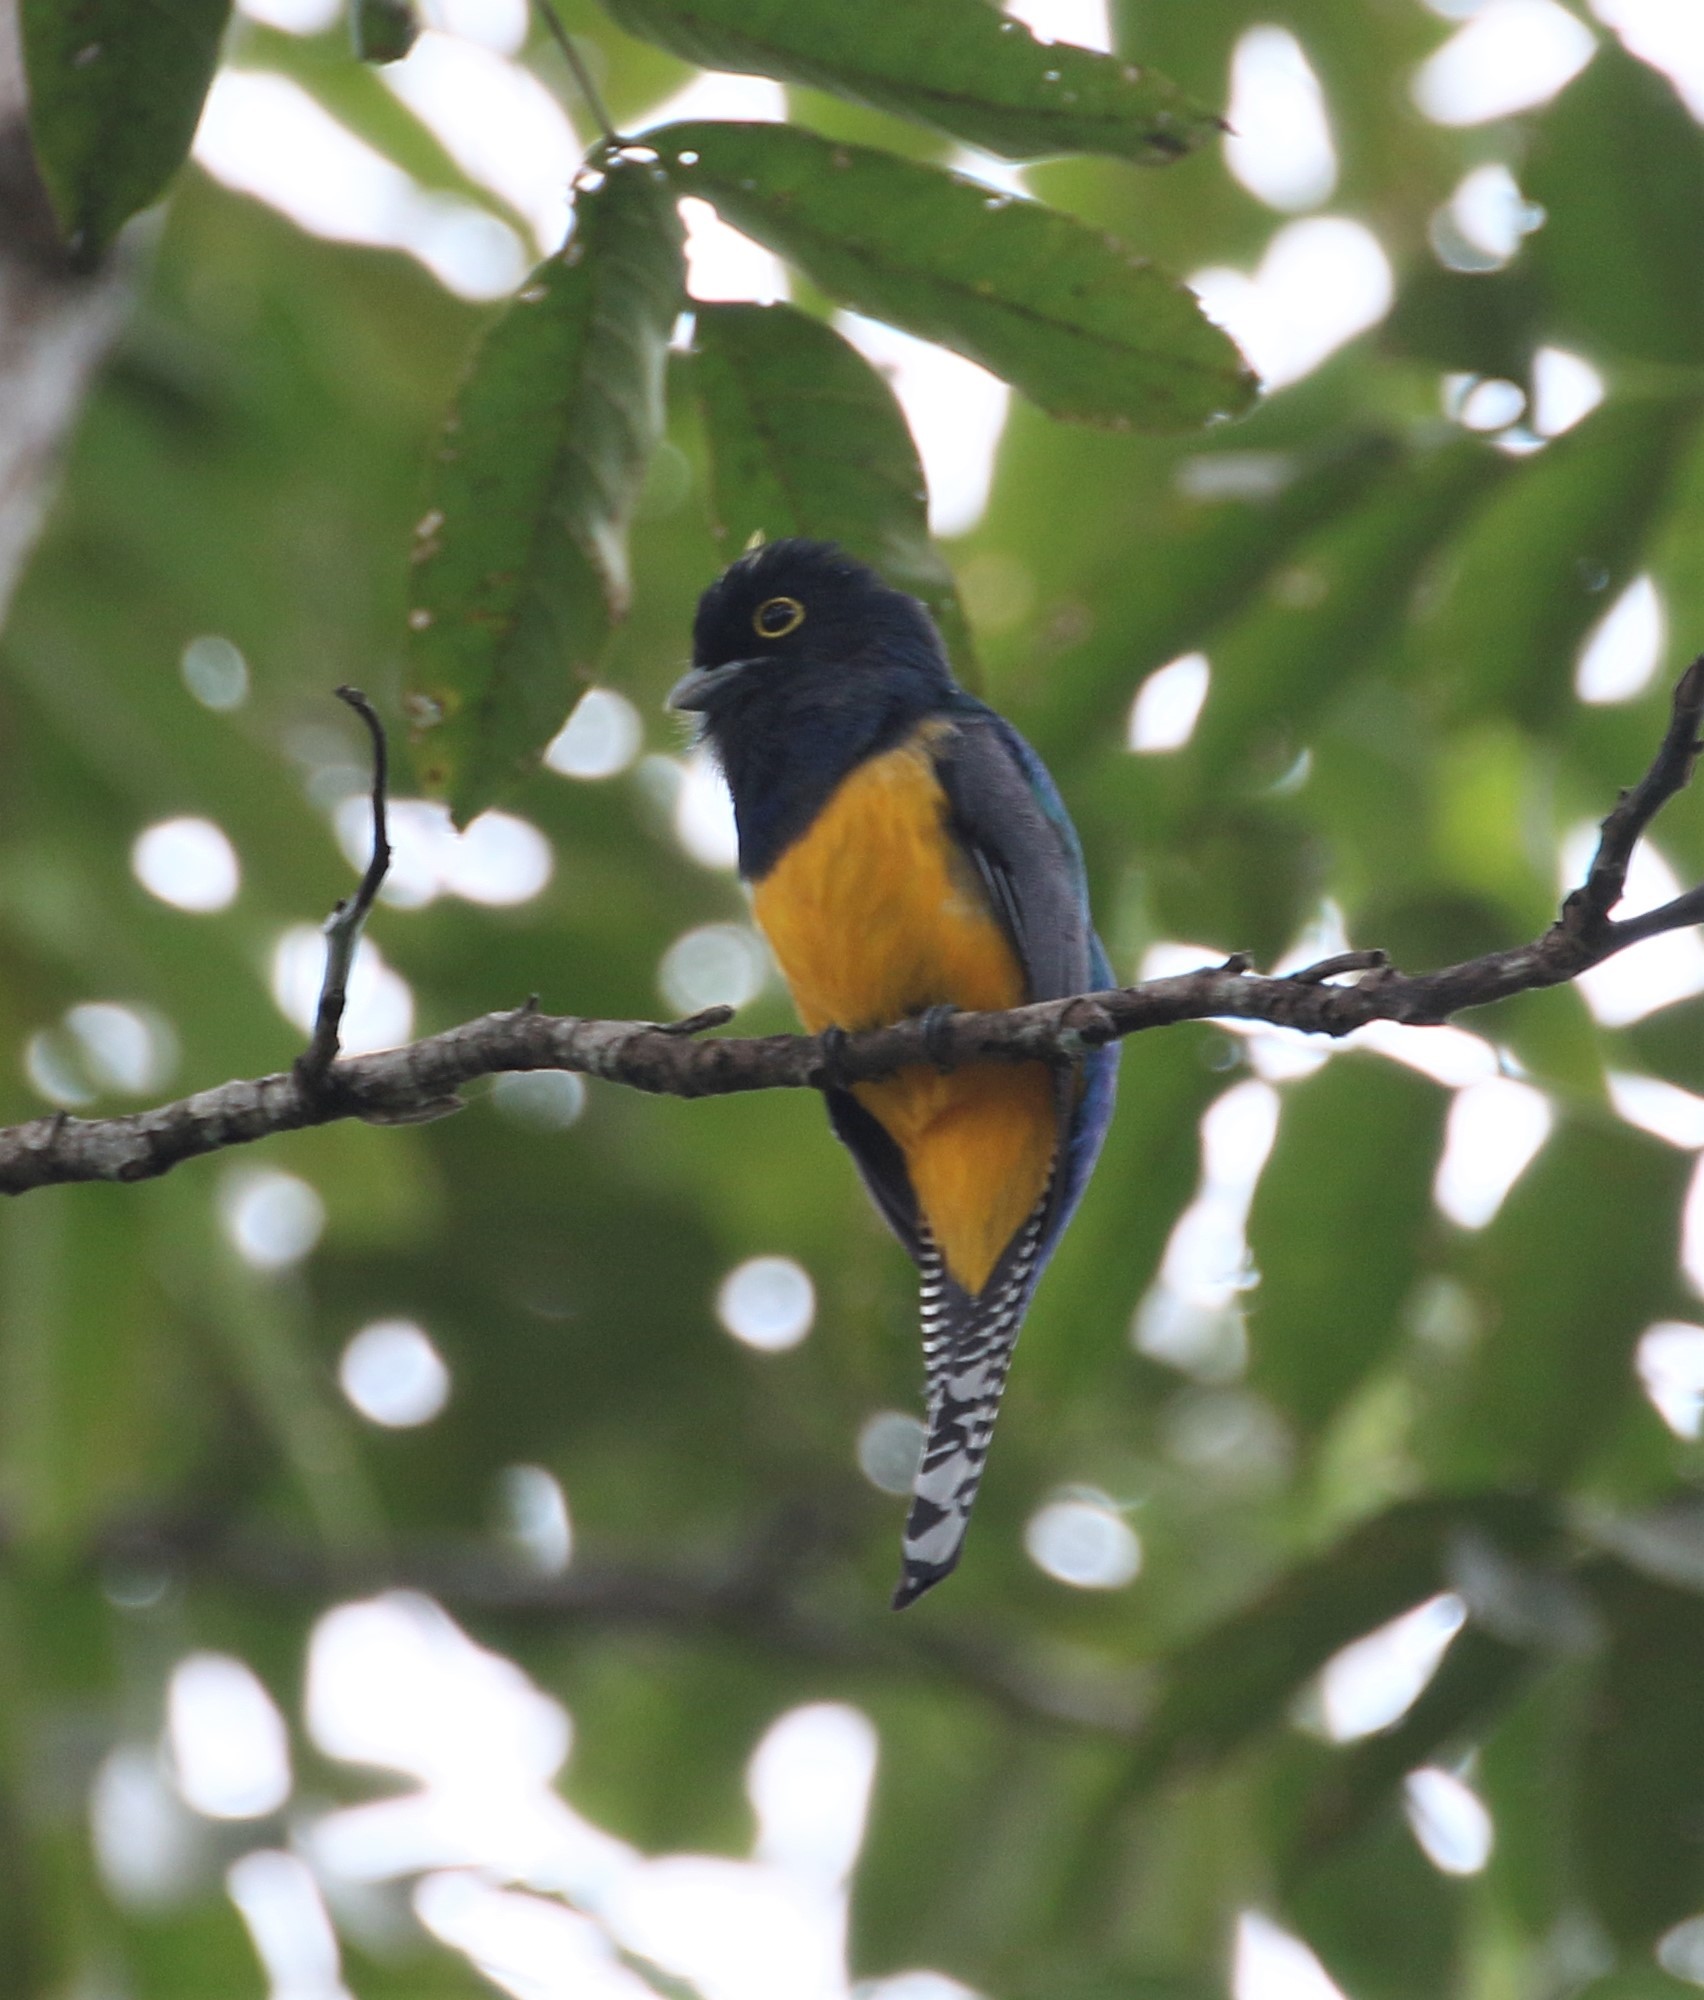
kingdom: Animalia
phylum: Chordata
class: Aves
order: Trogoniformes
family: Trogonidae
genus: Trogon
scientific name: Trogon caligatus
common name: Gartered trogon
